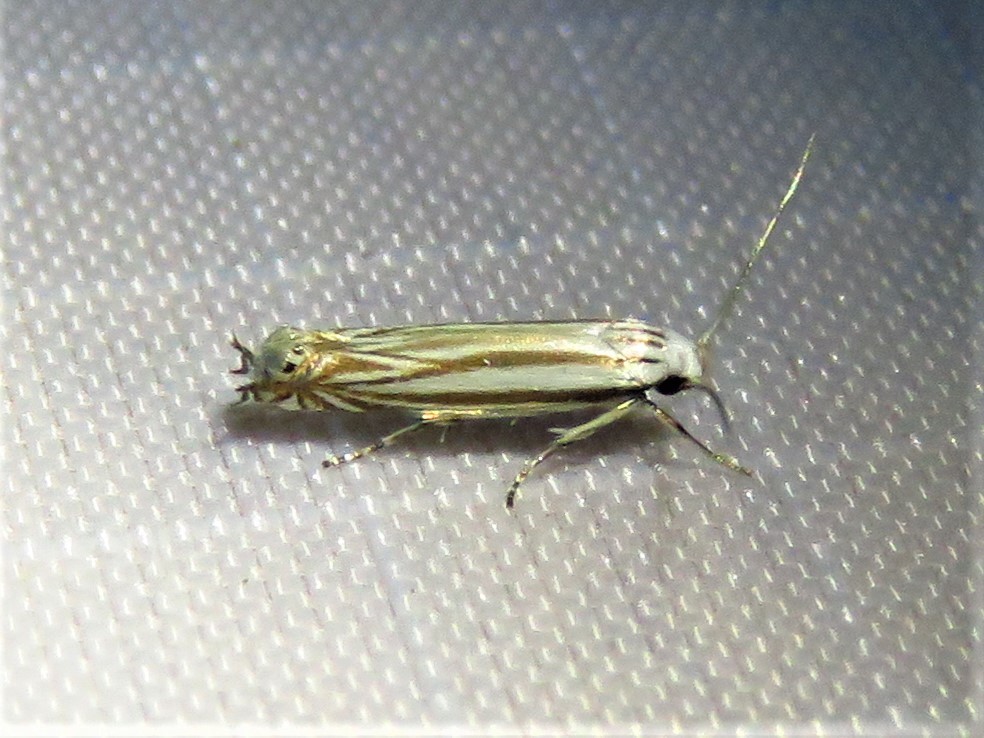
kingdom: Animalia
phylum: Arthropoda
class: Insecta
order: Lepidoptera
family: Gelechiidae
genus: Polyhymno
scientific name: Polyhymno luteostrigella
